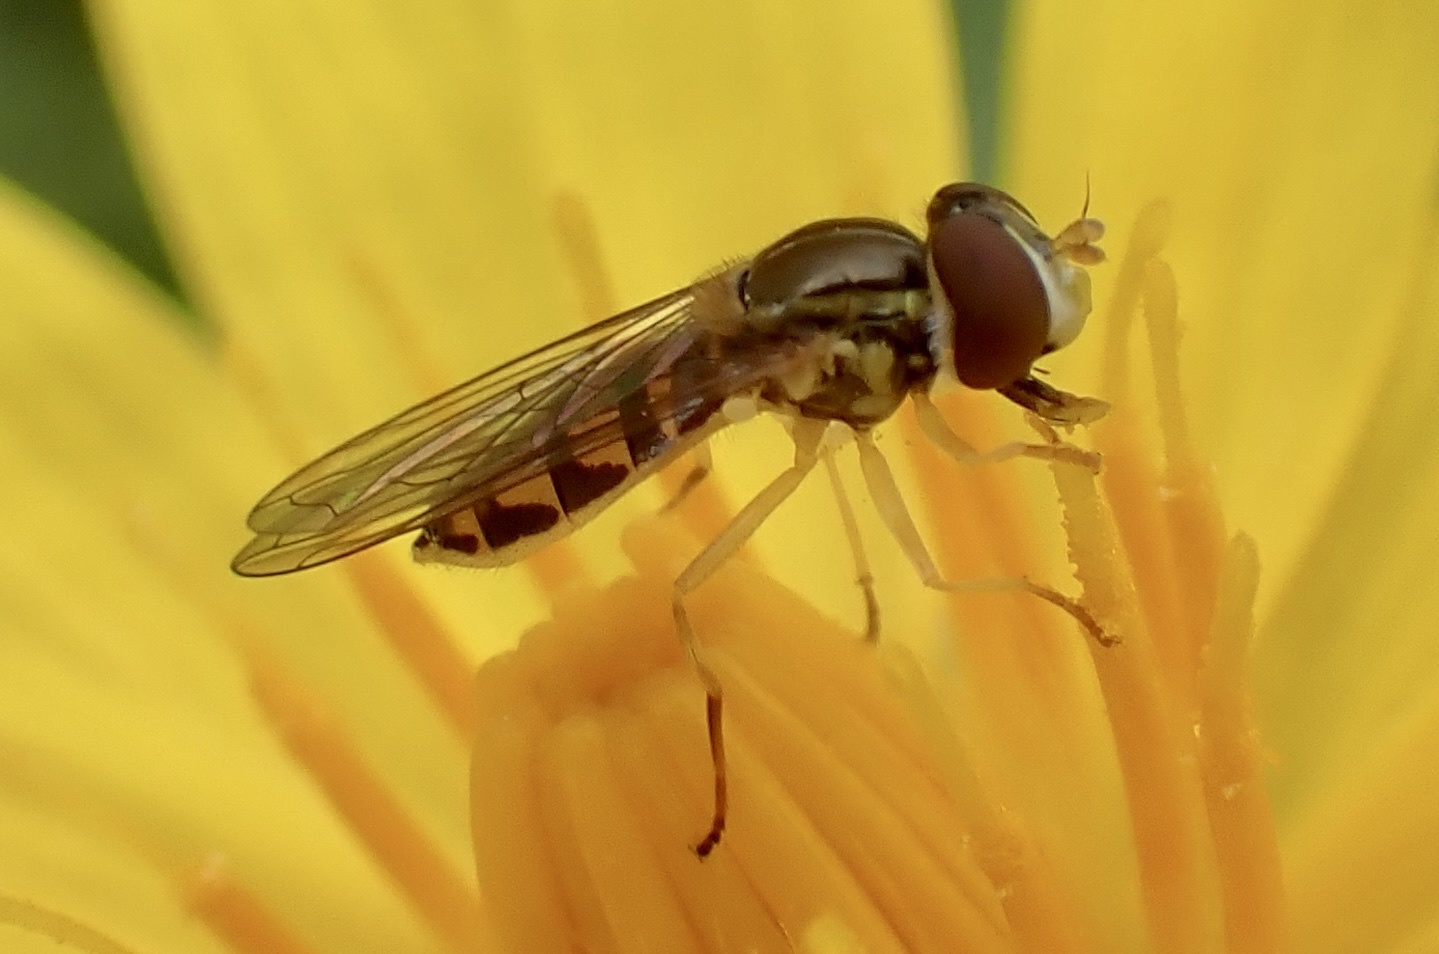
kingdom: Animalia
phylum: Arthropoda
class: Insecta
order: Diptera
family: Syrphidae
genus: Toxomerus
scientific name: Toxomerus marginatus
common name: Syrphid fly
